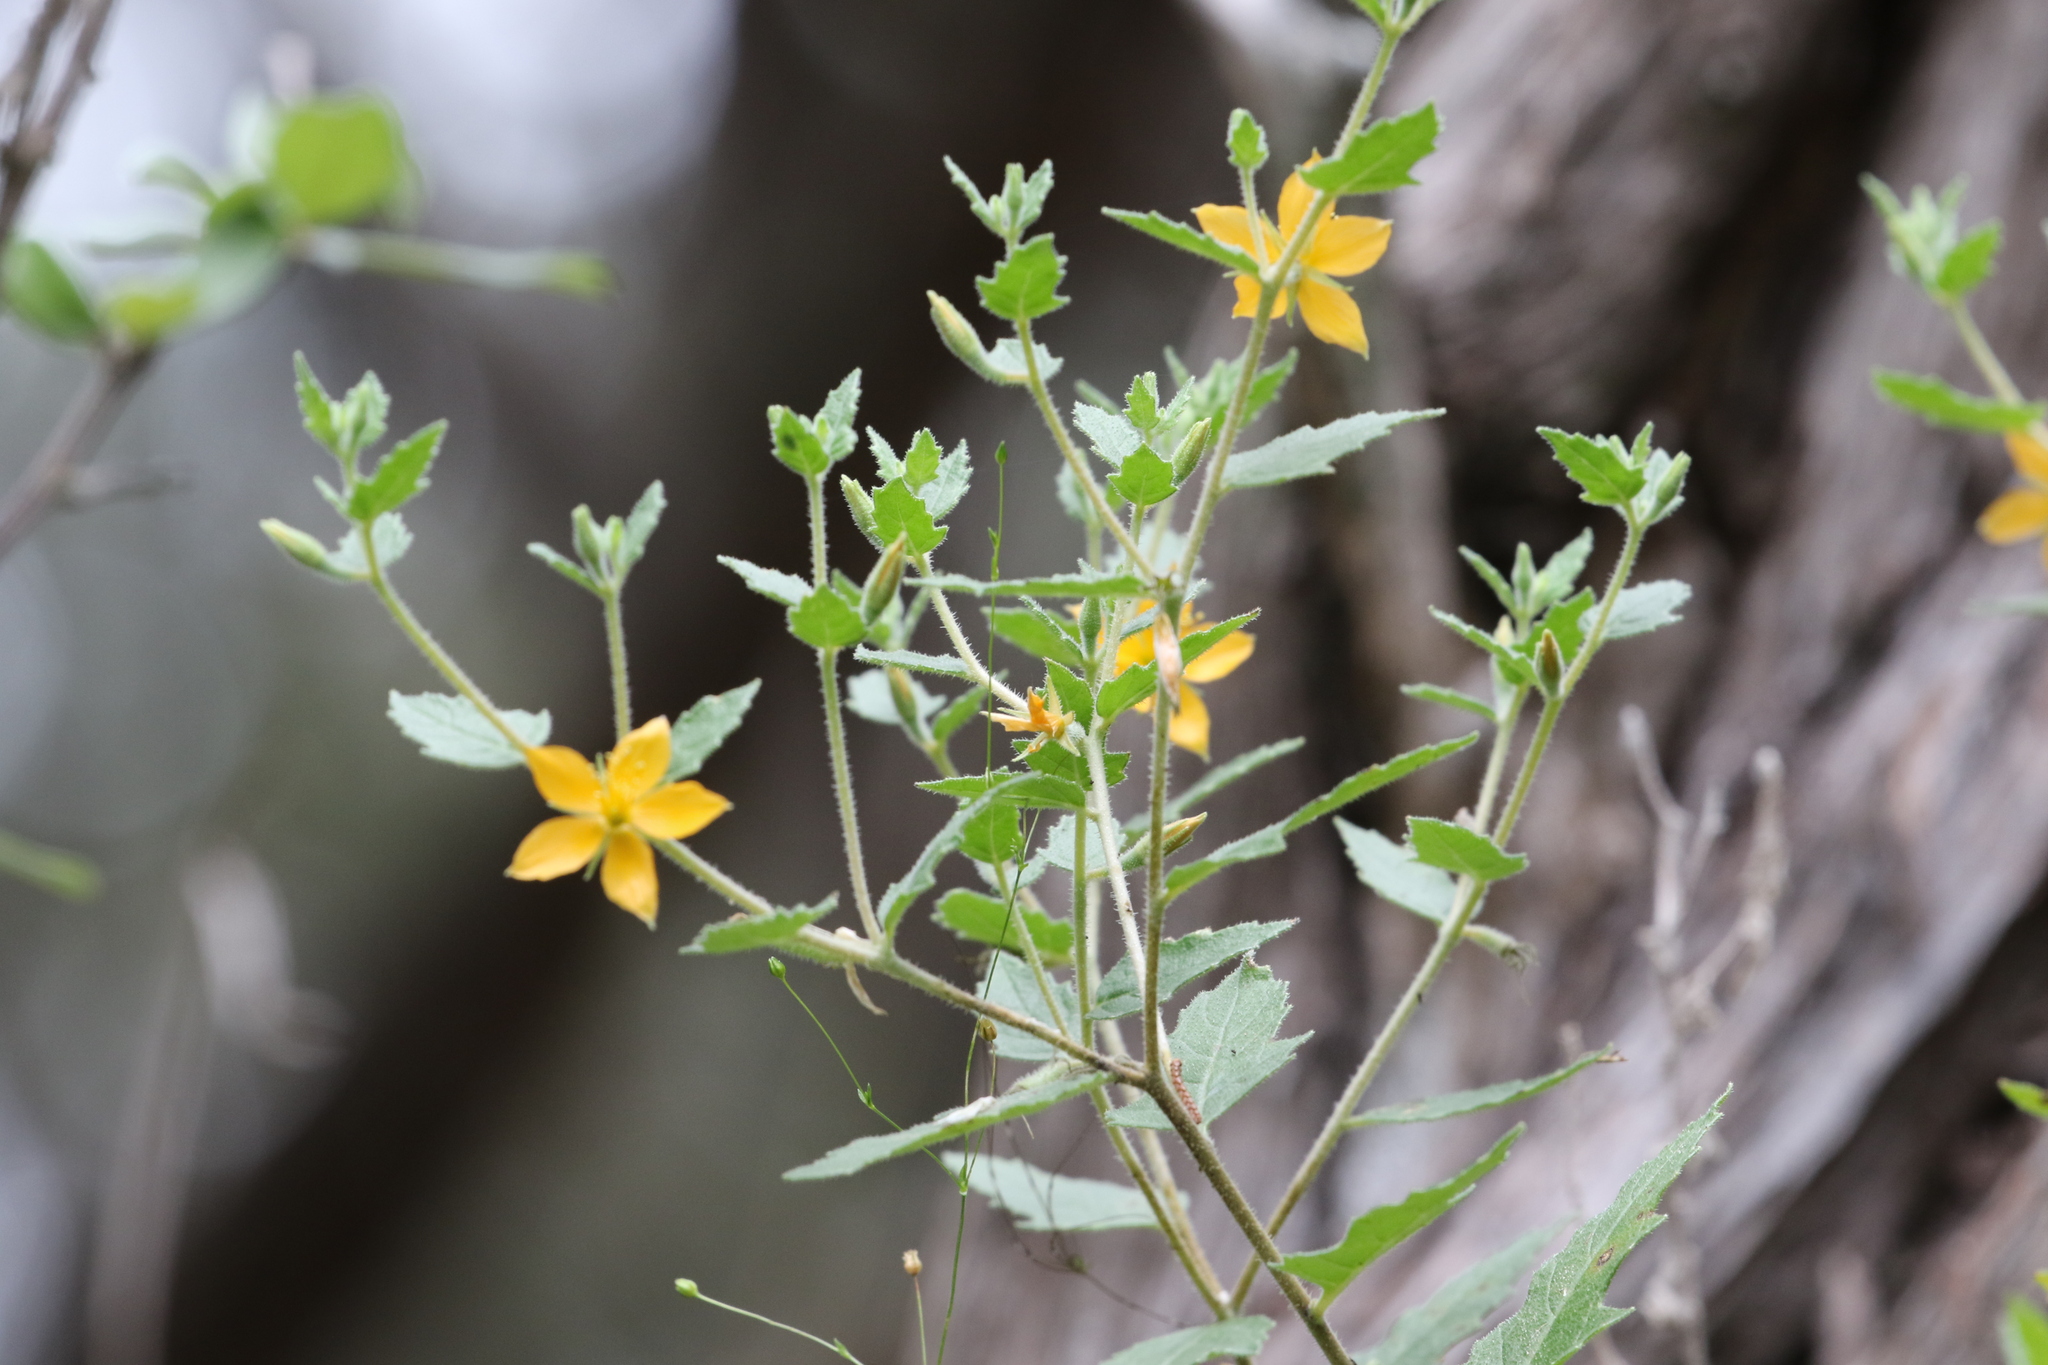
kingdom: Plantae
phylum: Tracheophyta
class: Magnoliopsida
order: Cornales
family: Loasaceae
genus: Mentzelia
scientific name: Mentzelia oligosperma
